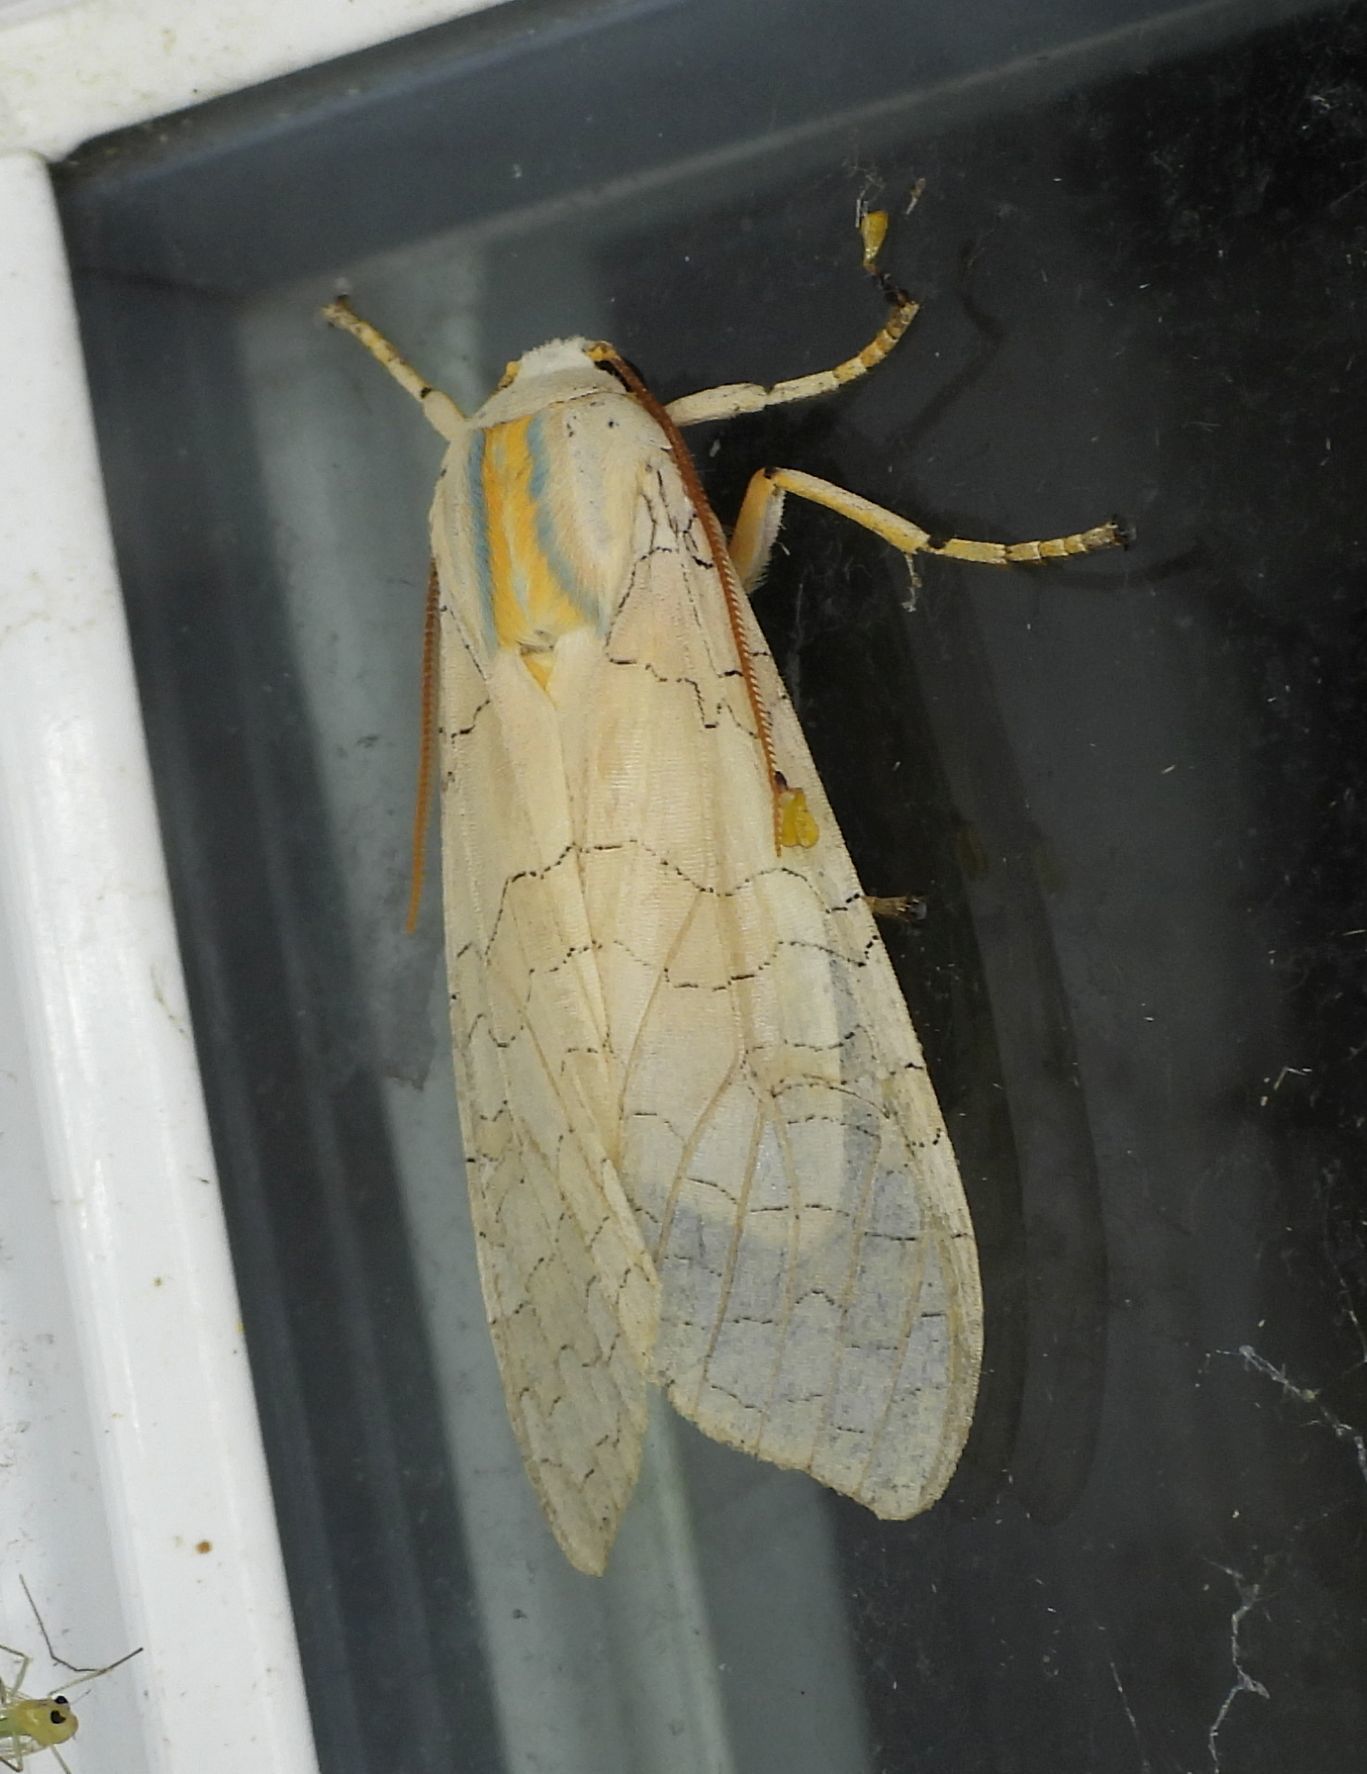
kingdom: Animalia
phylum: Arthropoda
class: Insecta
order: Lepidoptera
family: Erebidae
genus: Halysidota
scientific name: Halysidota tessellaris
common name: Banded tussock moth
